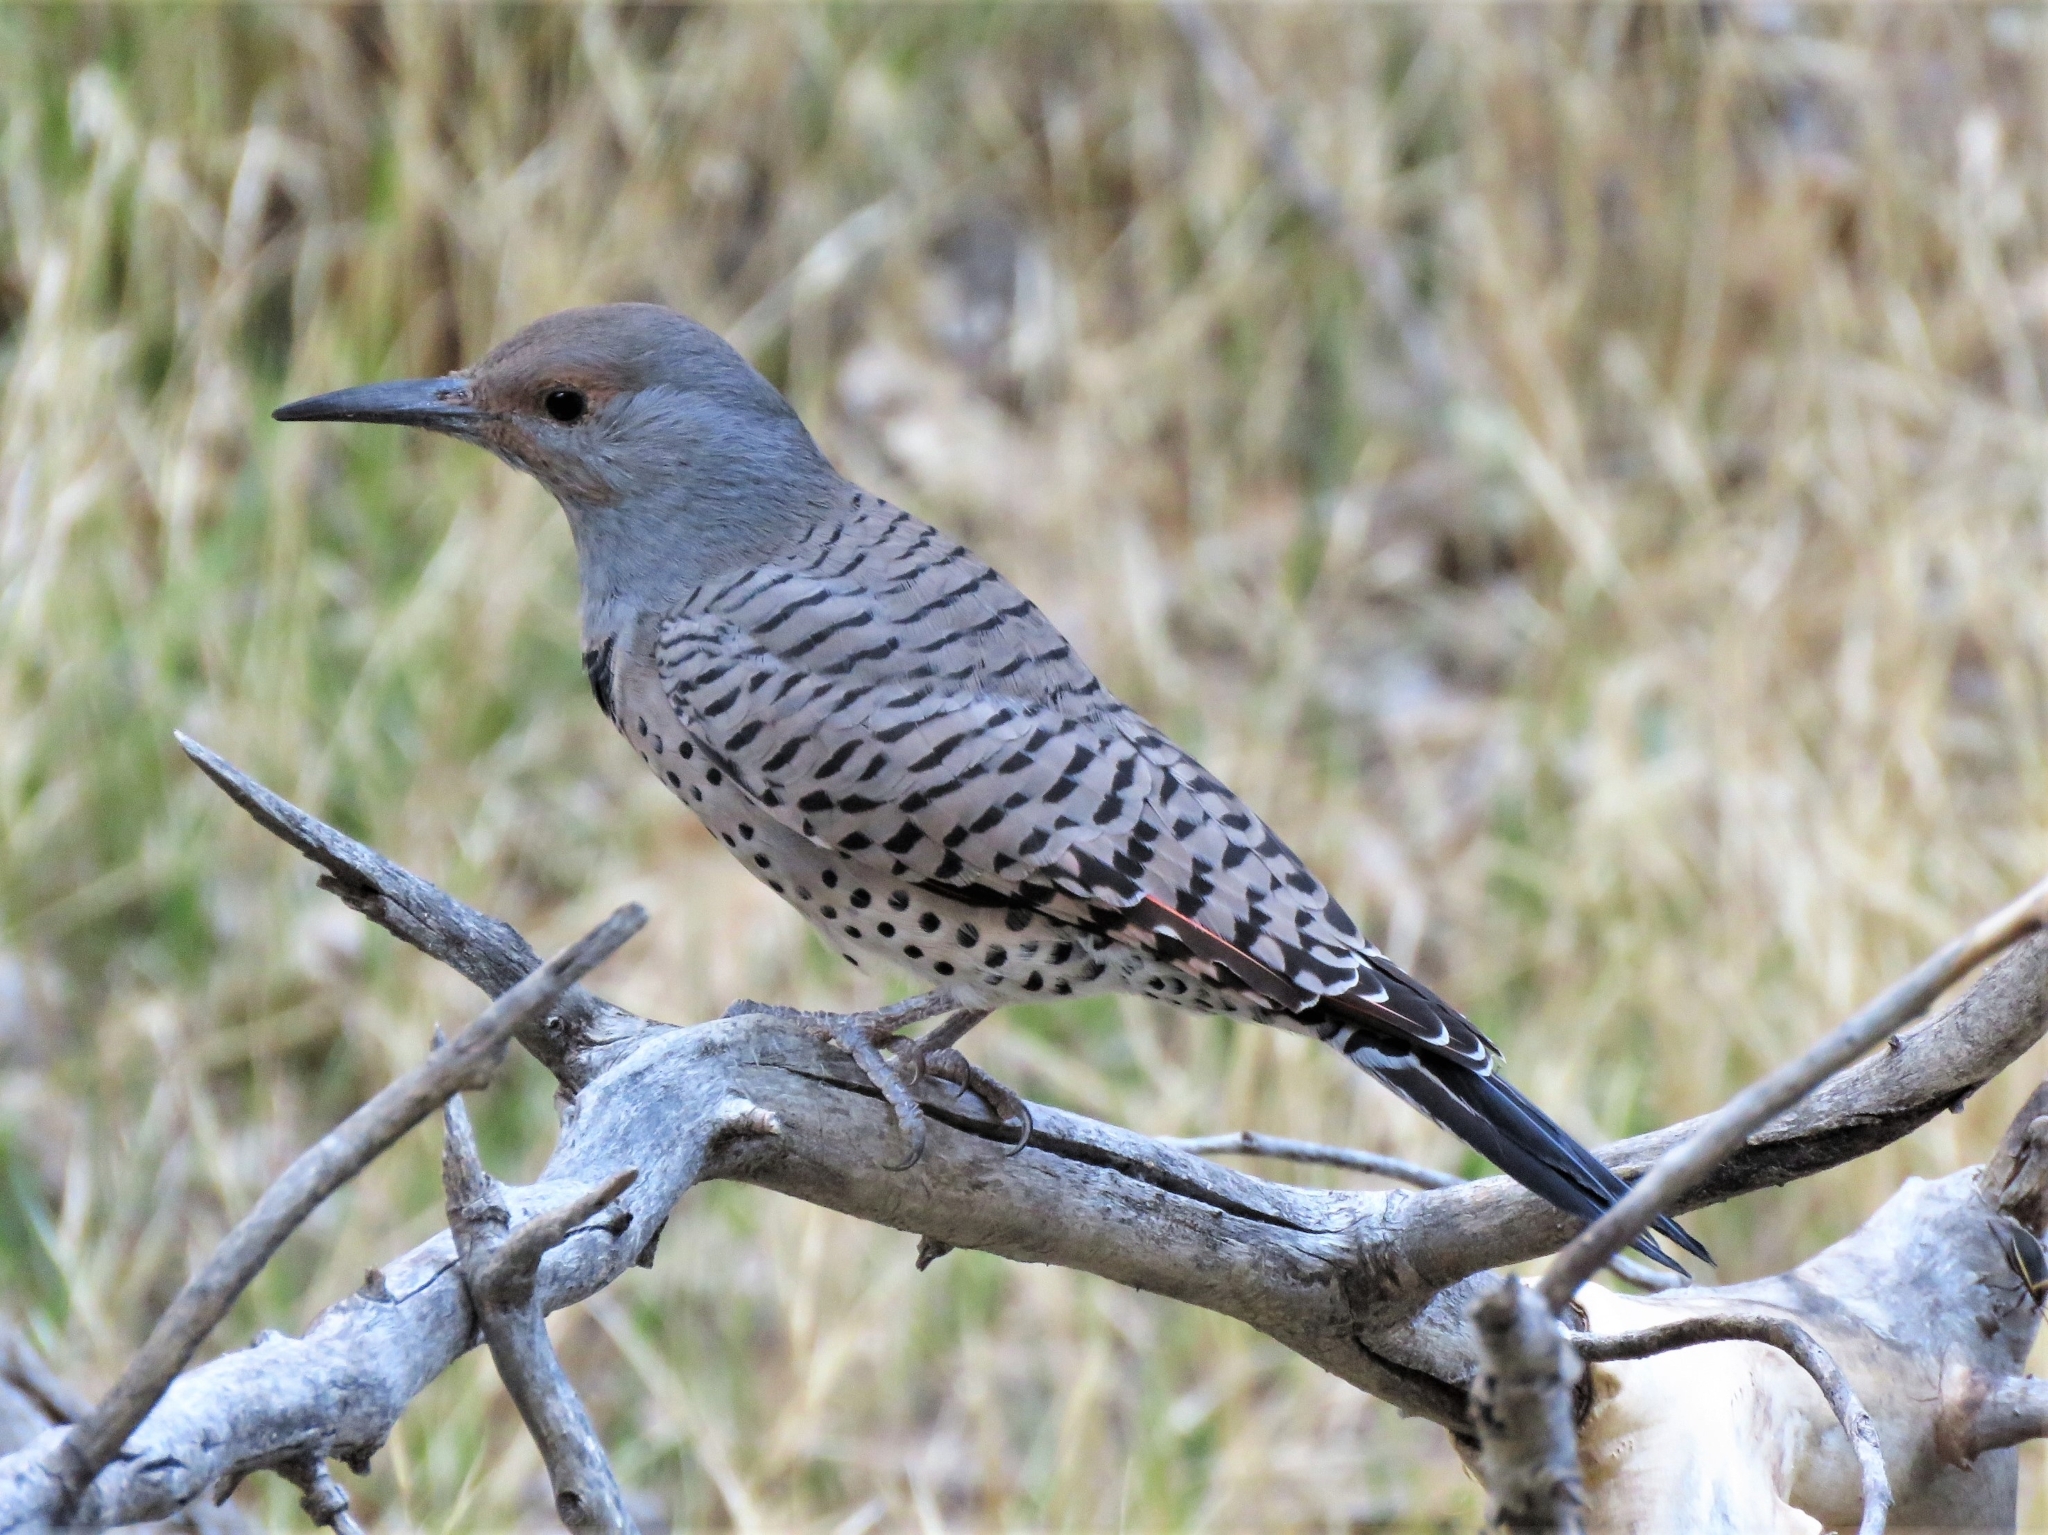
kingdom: Animalia
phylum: Chordata
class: Aves
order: Piciformes
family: Picidae
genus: Colaptes
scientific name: Colaptes auratus
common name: Northern flicker
